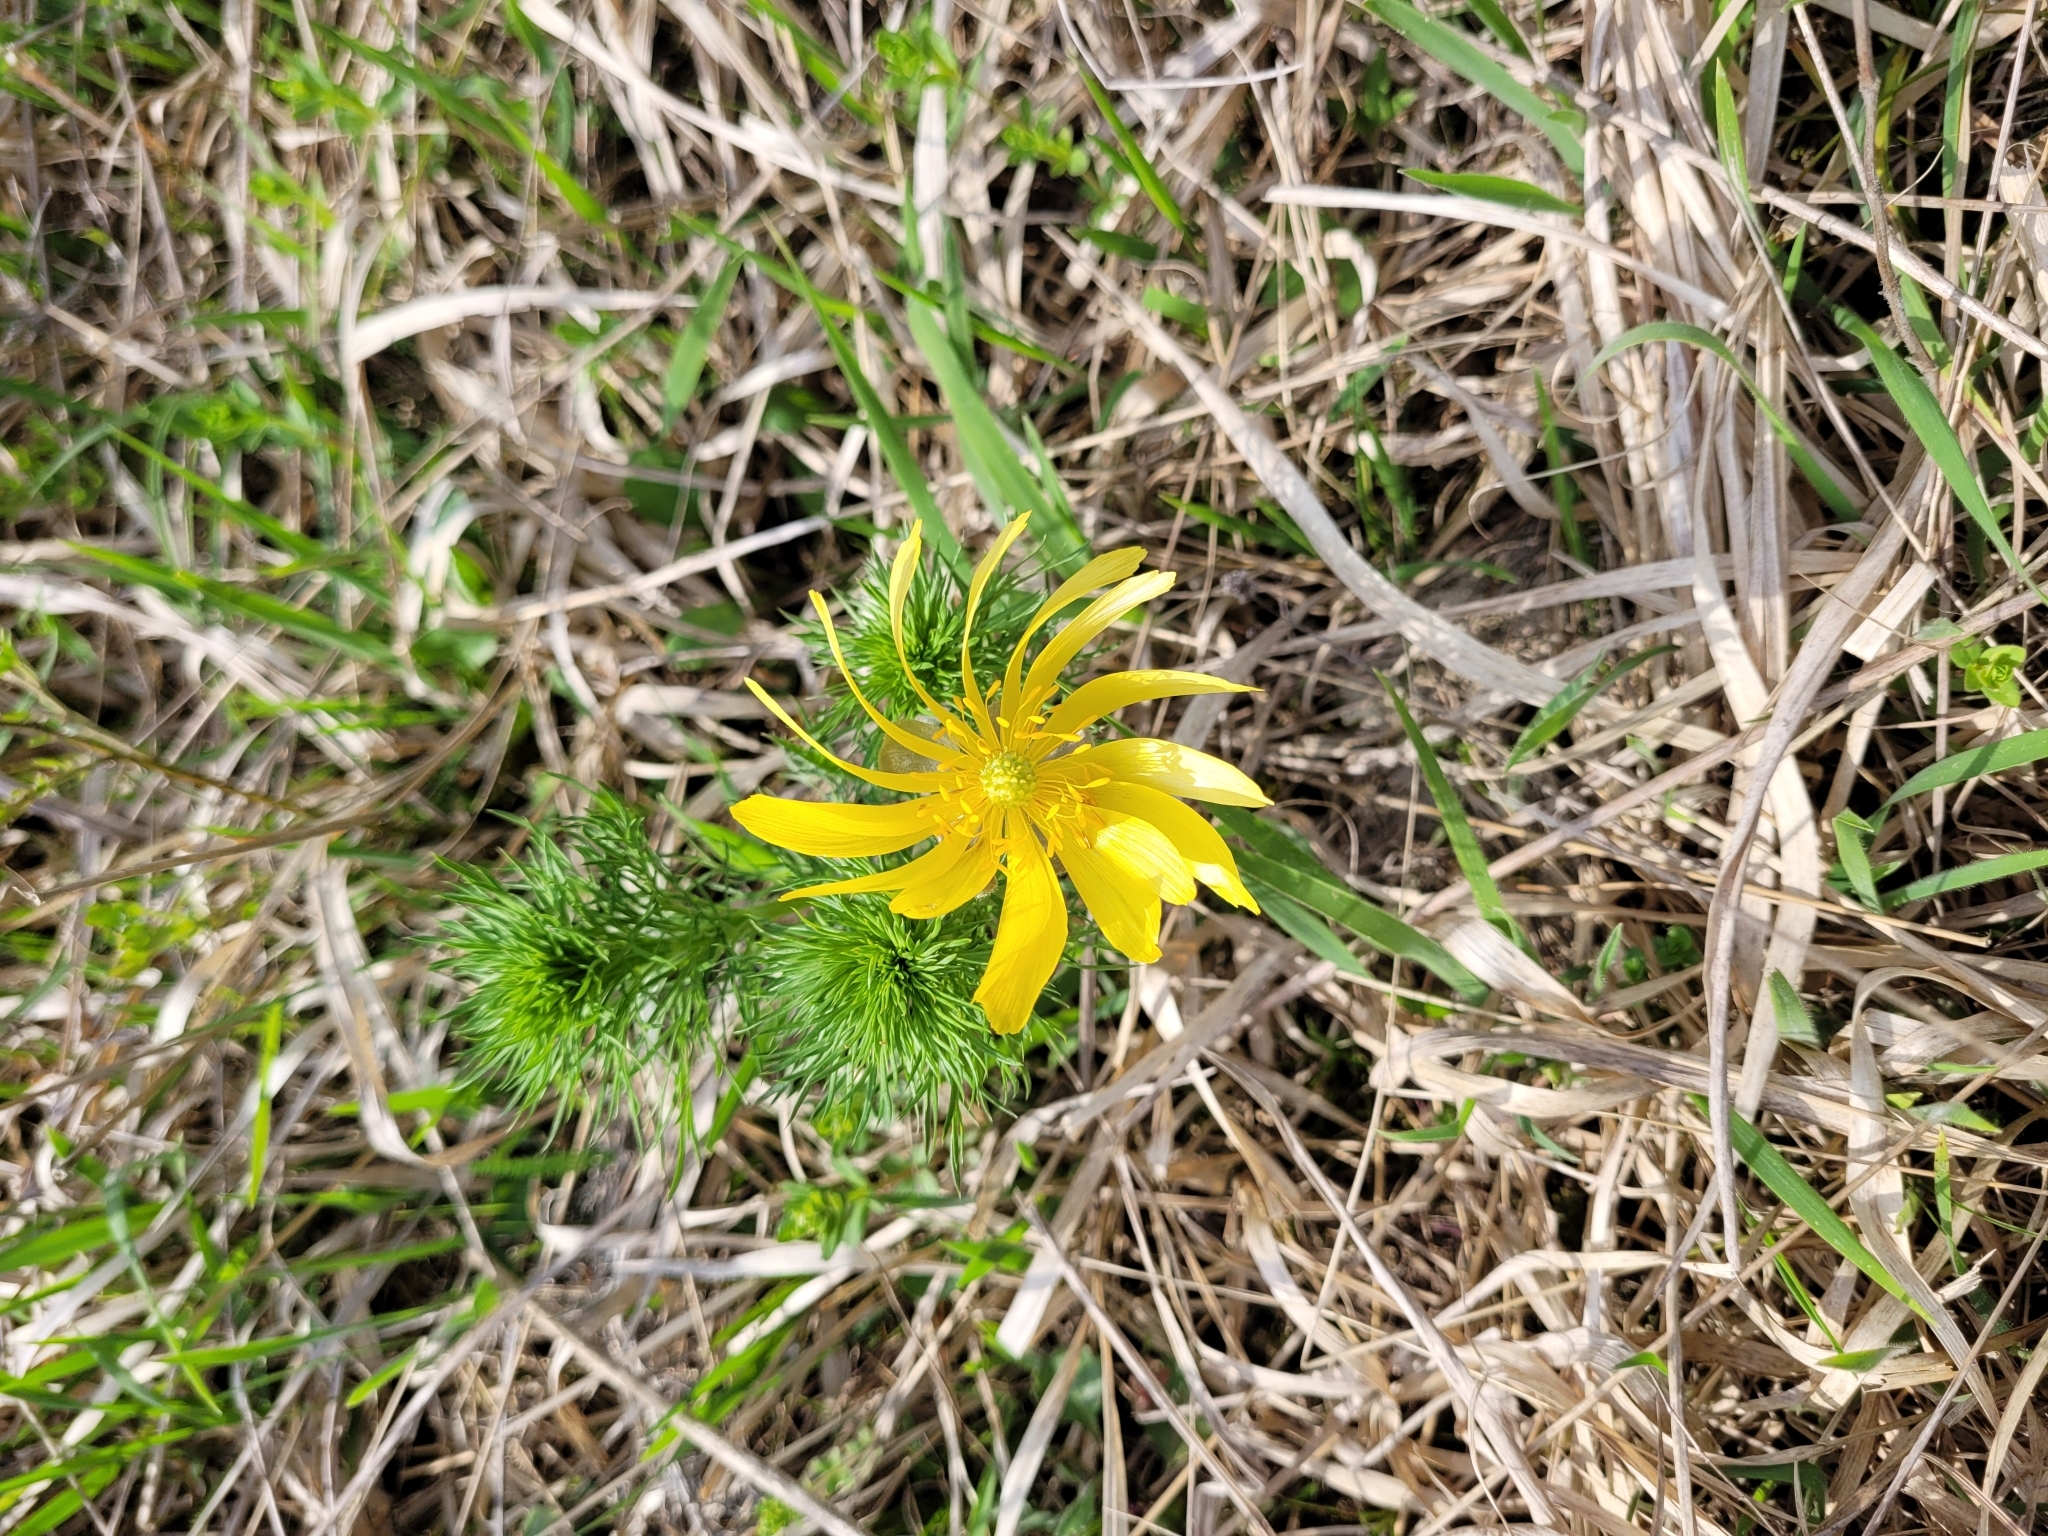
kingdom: Plantae
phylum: Tracheophyta
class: Magnoliopsida
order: Ranunculales
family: Ranunculaceae
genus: Adonis
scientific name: Adonis vernalis
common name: Yellow pheasants-eye
